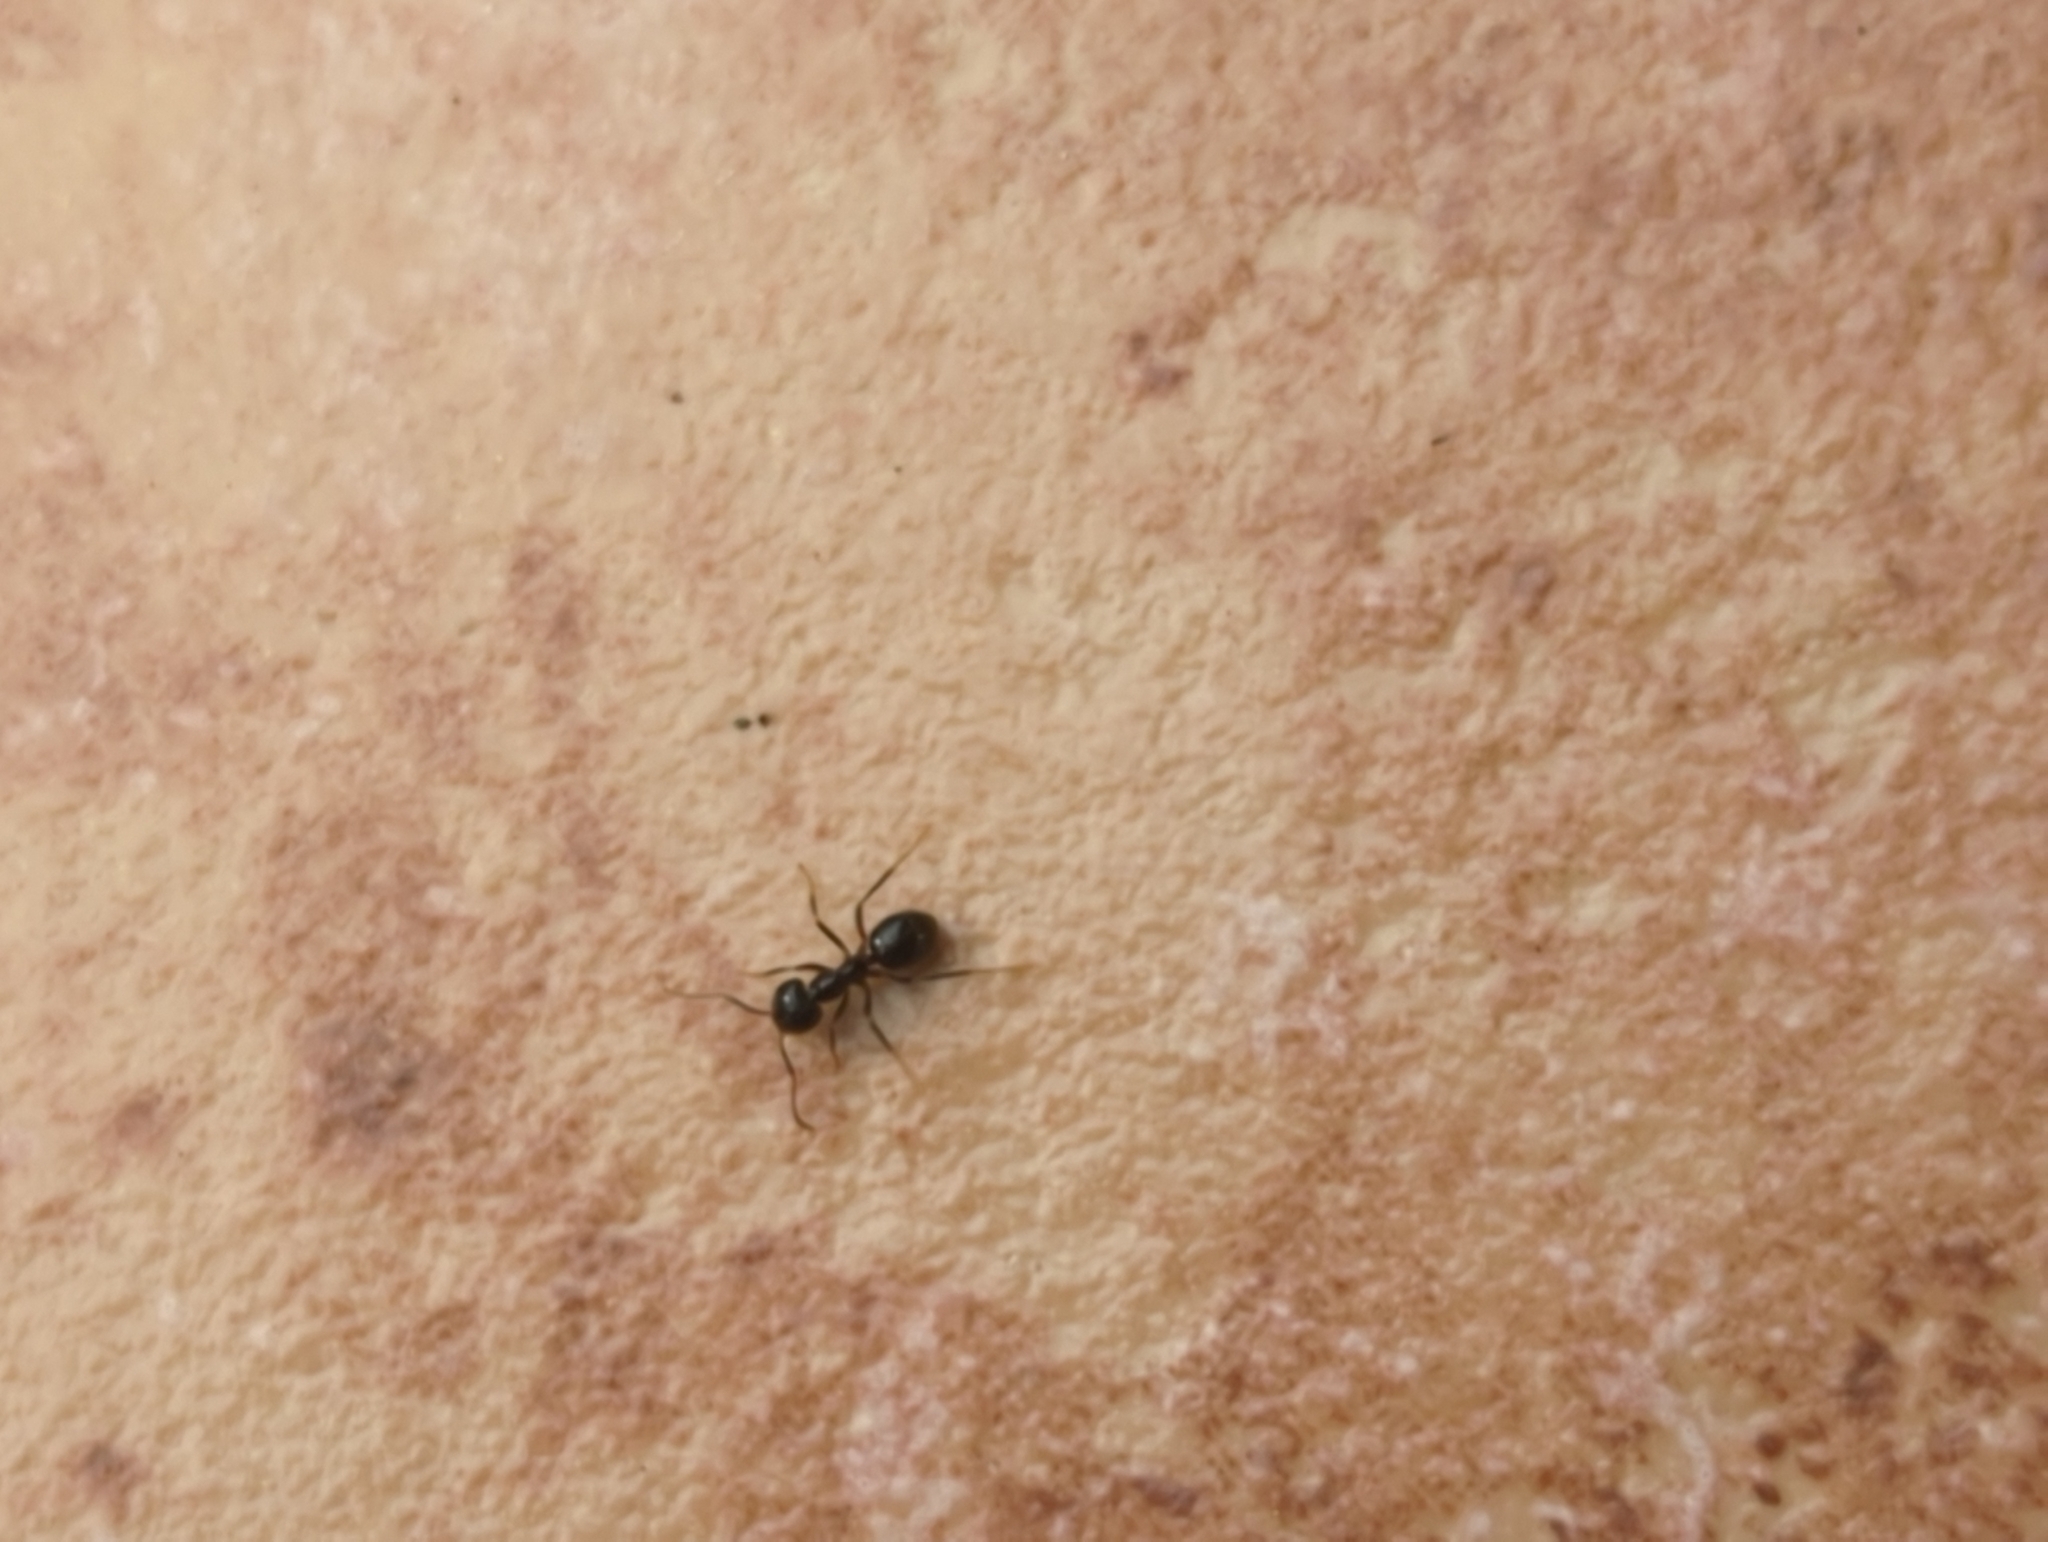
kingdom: Animalia
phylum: Arthropoda
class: Insecta
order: Hymenoptera
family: Formicidae
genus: Lasius
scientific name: Lasius fuliginosus
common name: Jet ant
